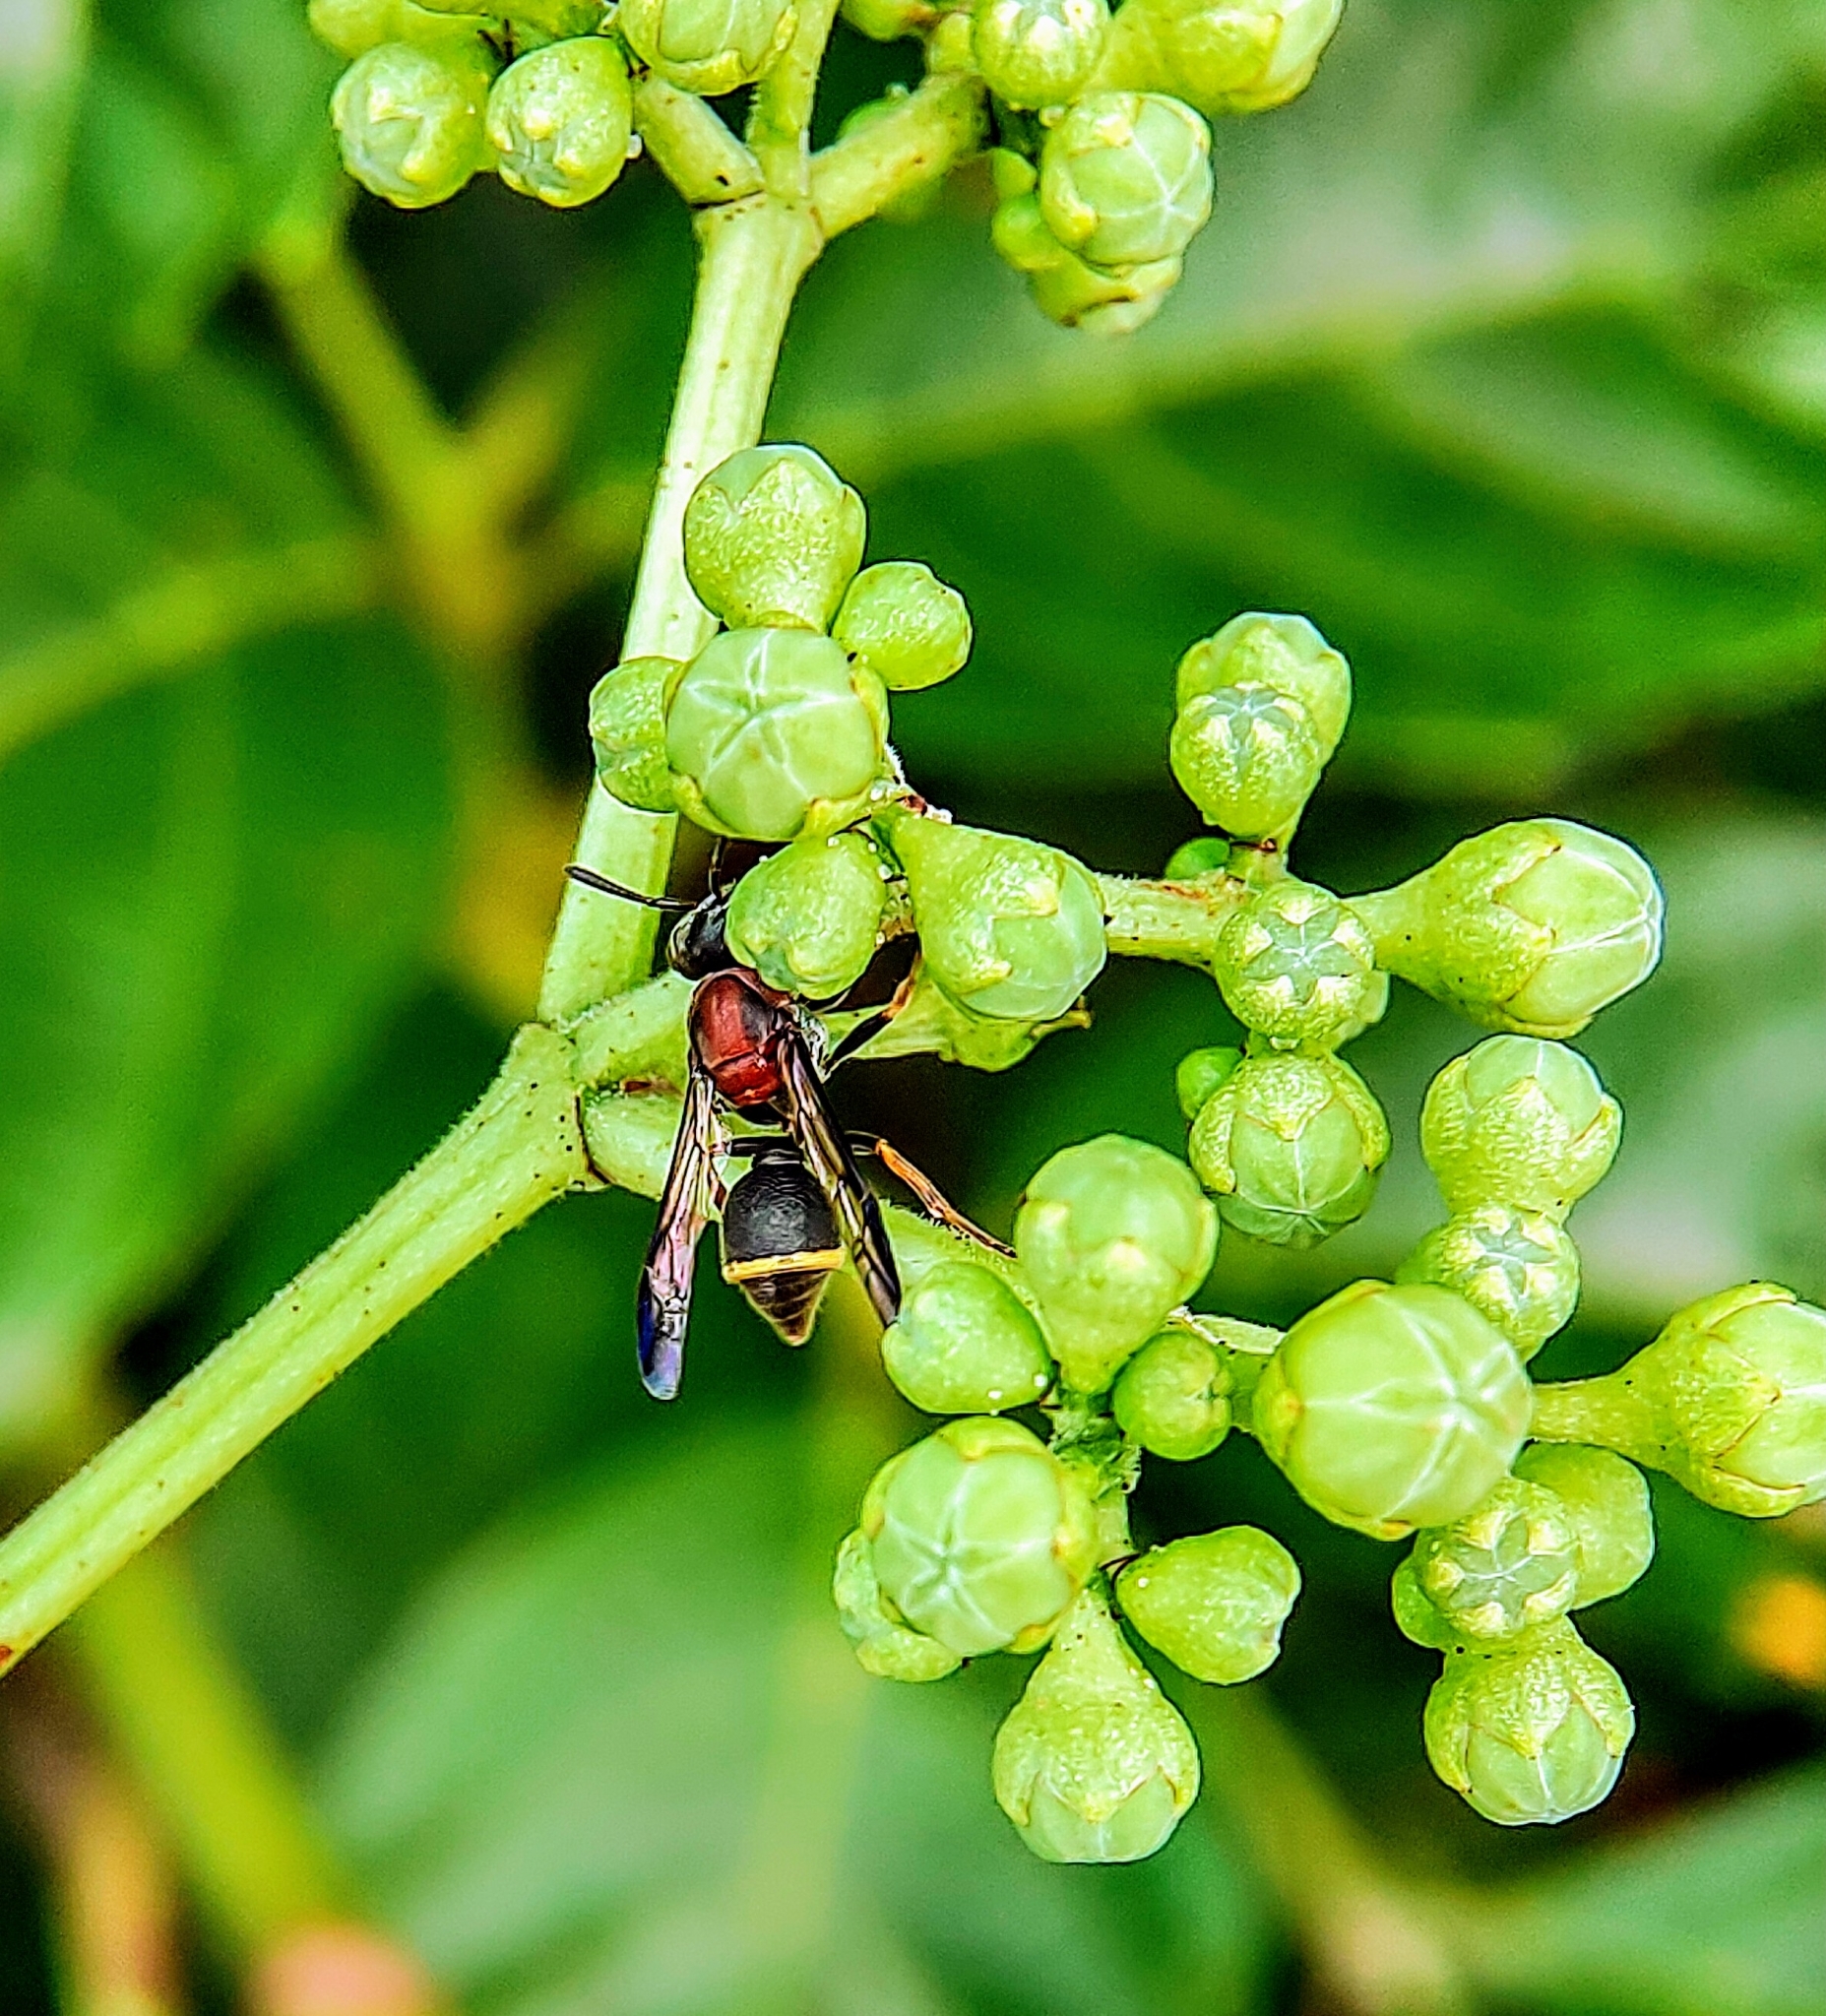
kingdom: Animalia
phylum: Arthropoda
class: Insecta
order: Hymenoptera
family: Vespidae
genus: Ropalidia
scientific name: Ropalidia erythrospila
